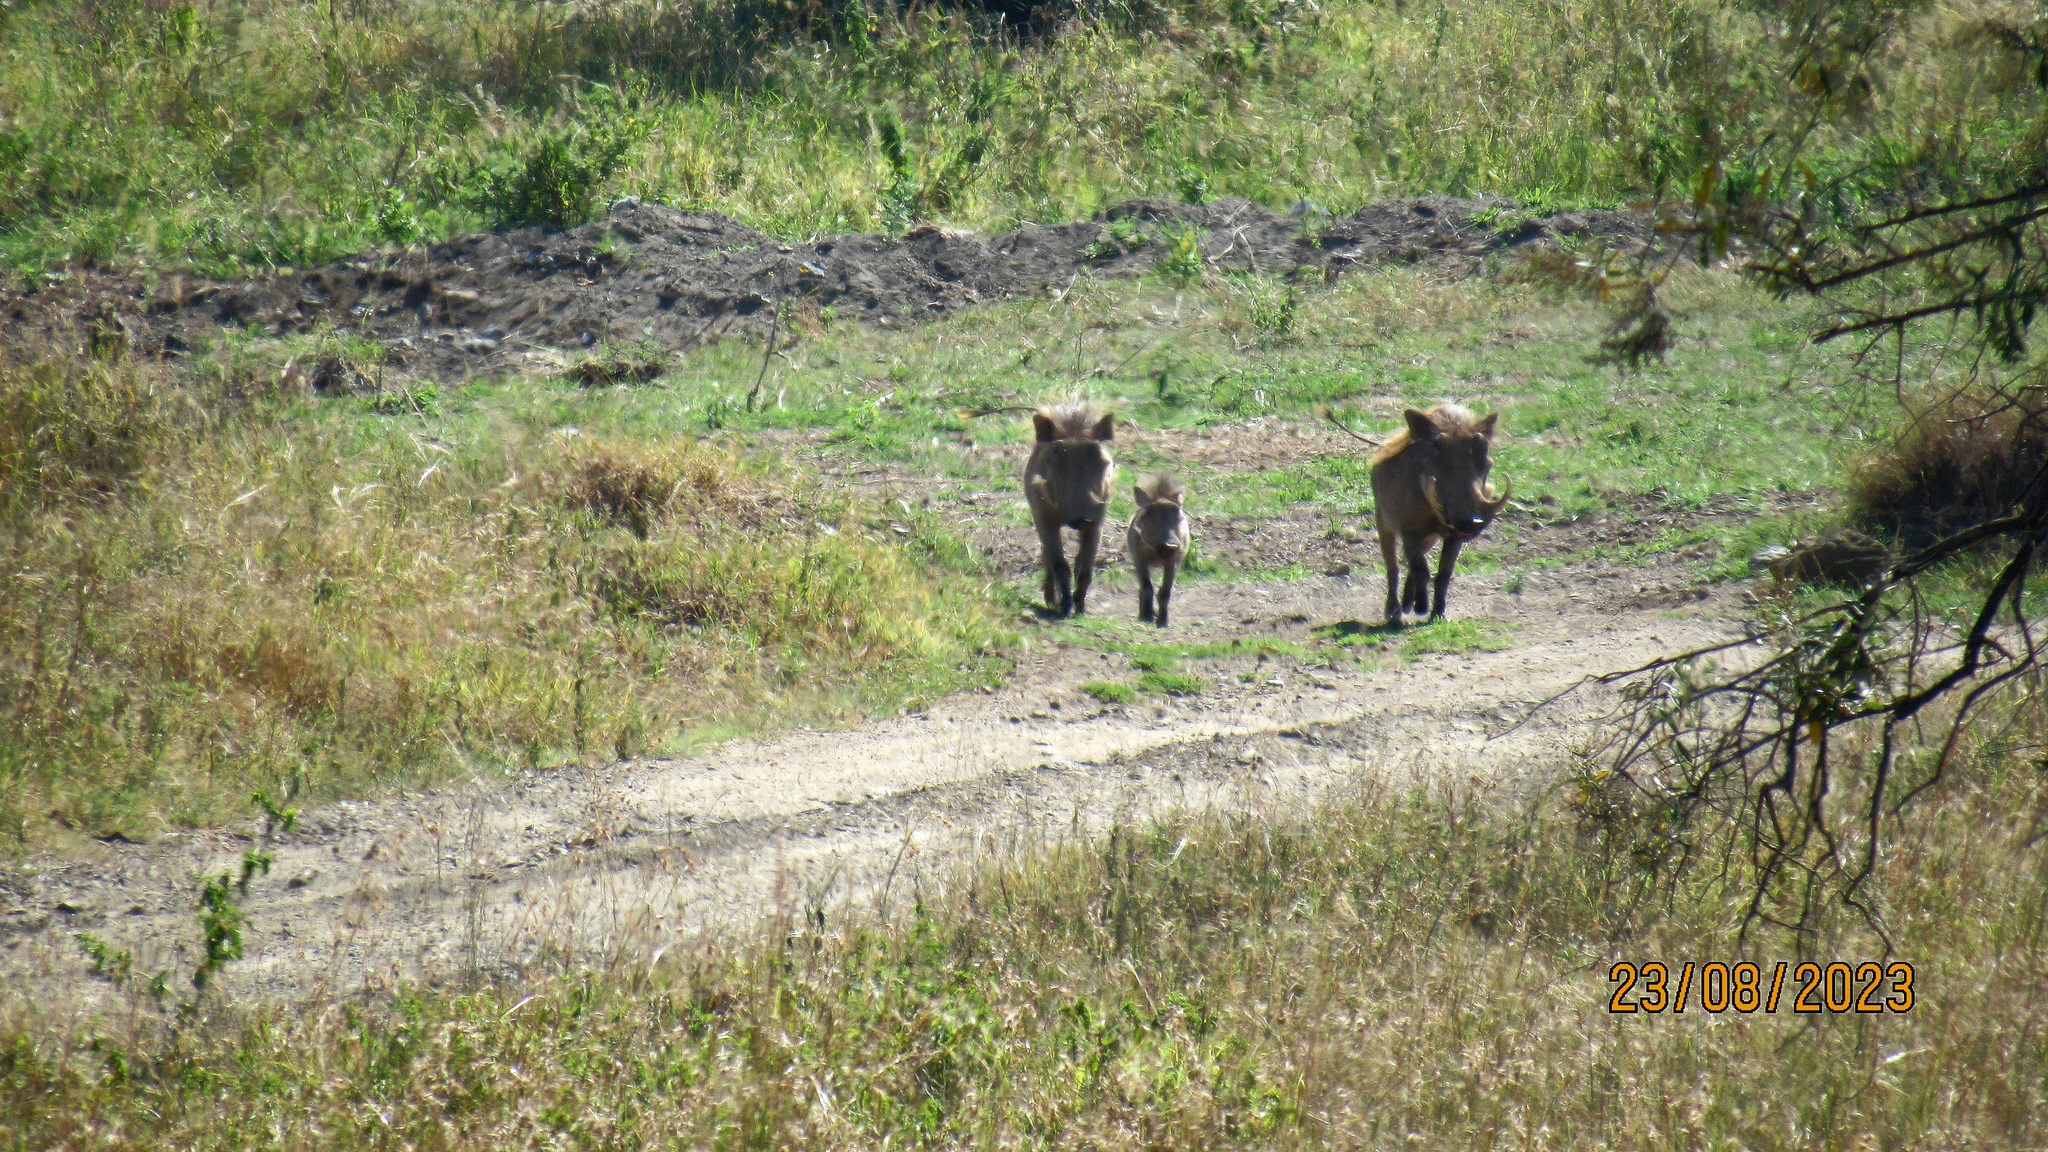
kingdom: Animalia
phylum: Chordata
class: Mammalia
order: Artiodactyla
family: Suidae
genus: Phacochoerus
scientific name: Phacochoerus africanus
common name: Common warthog
